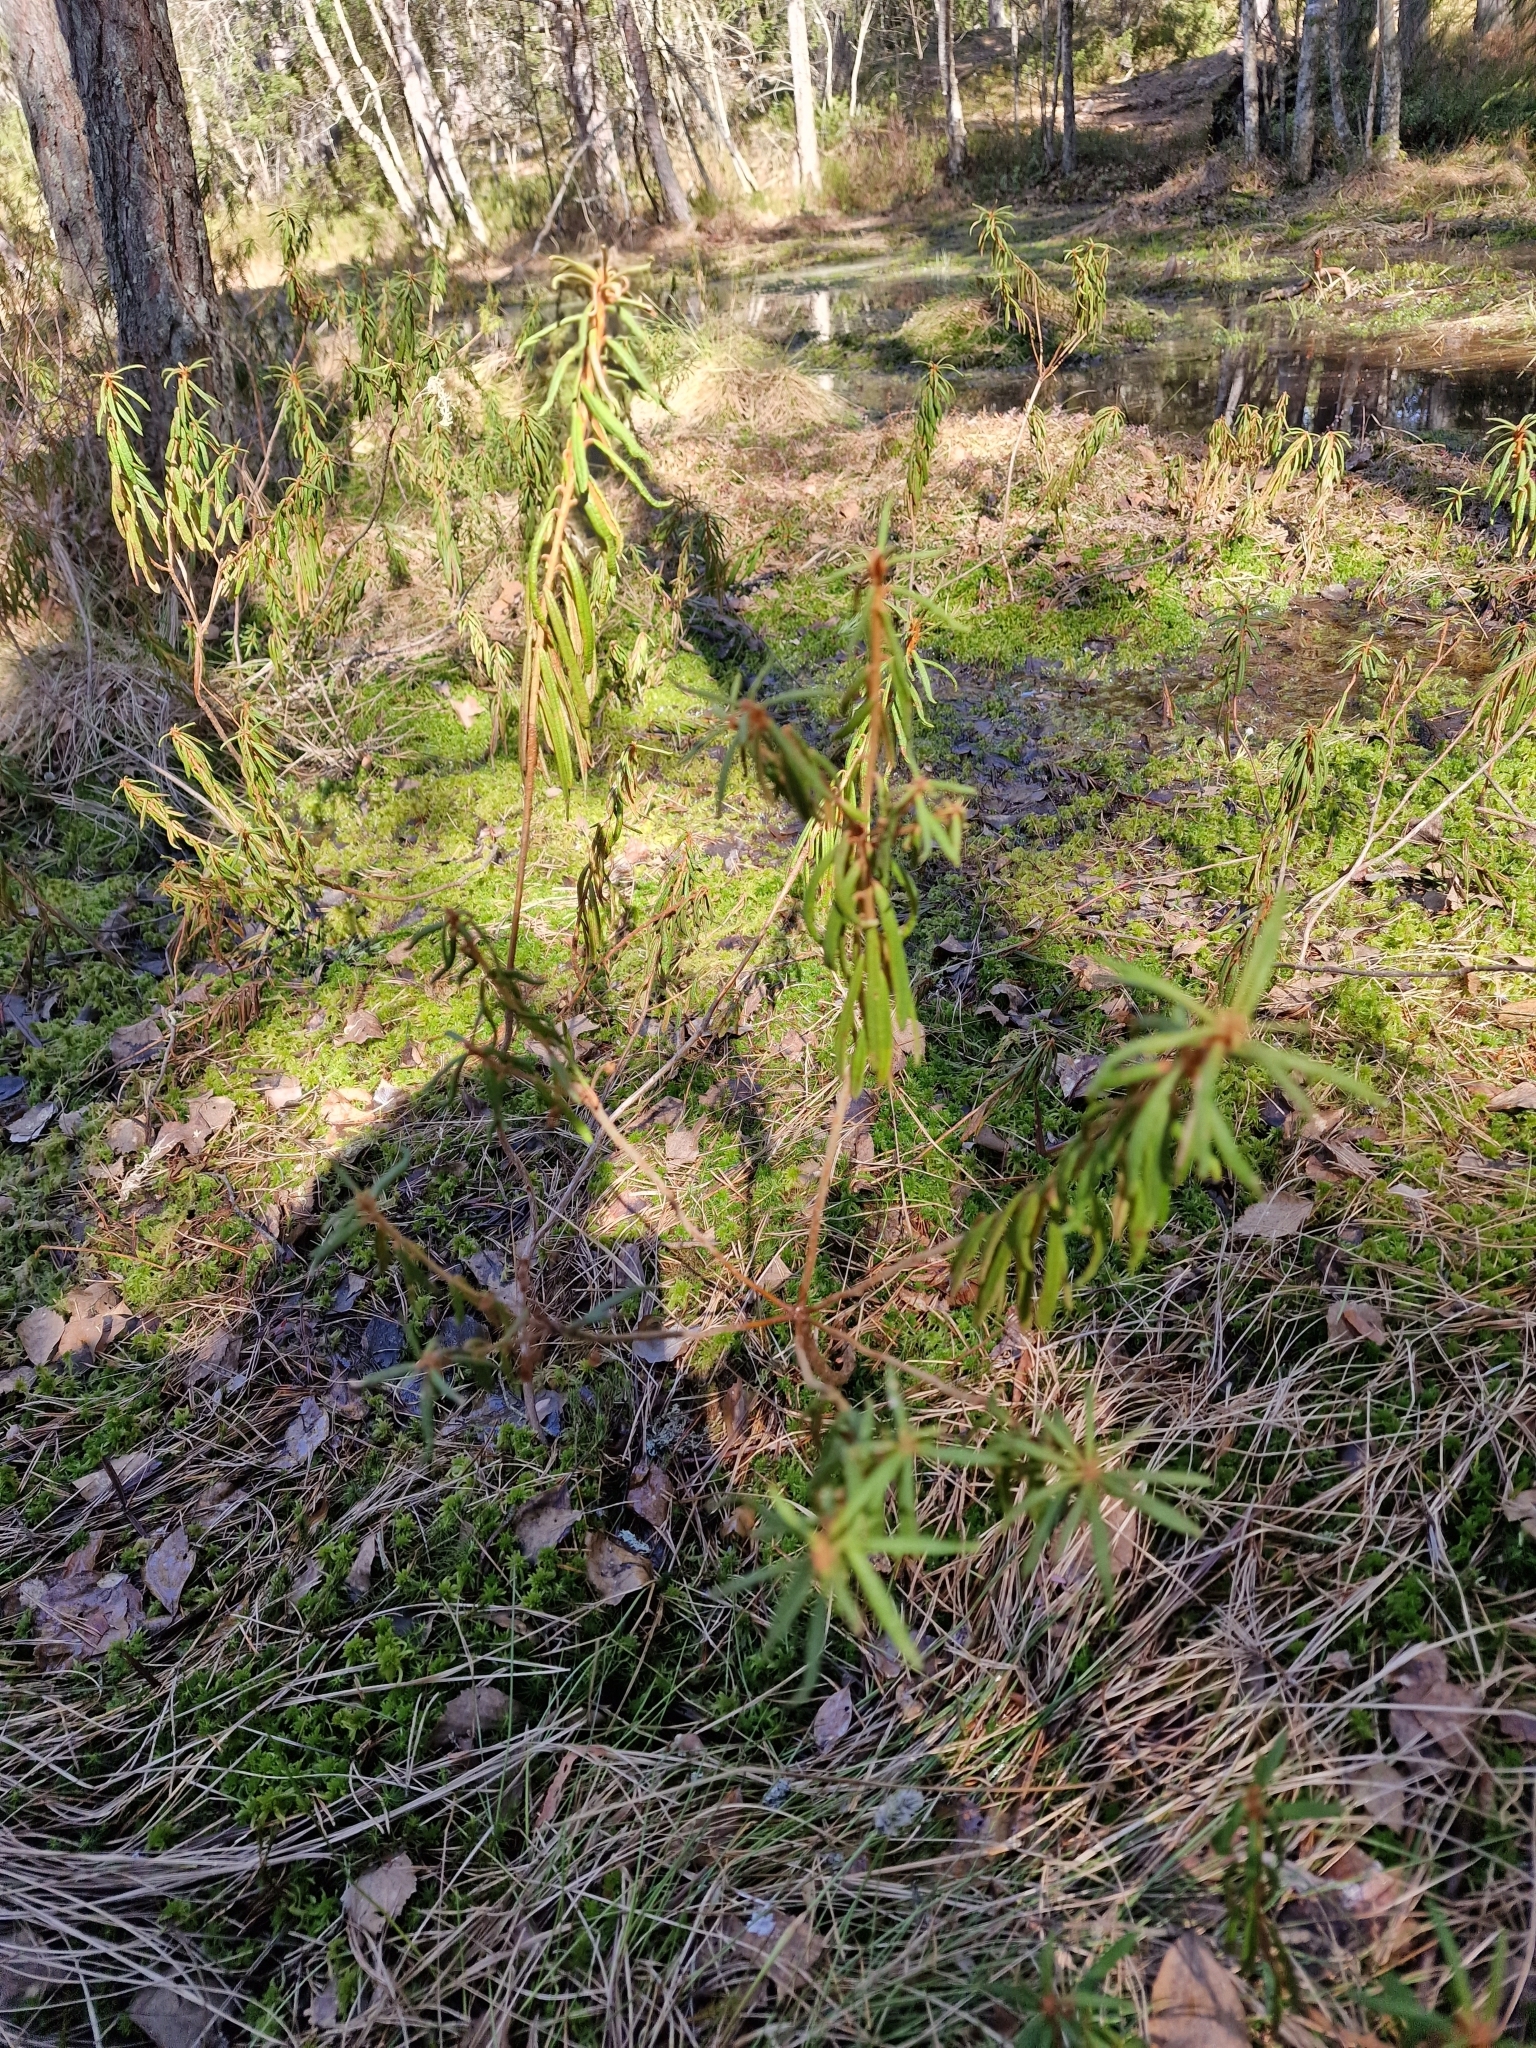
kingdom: Plantae
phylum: Tracheophyta
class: Magnoliopsida
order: Ericales
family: Ericaceae
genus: Rhododendron
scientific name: Rhododendron tomentosum
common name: Marsh labrador tea
